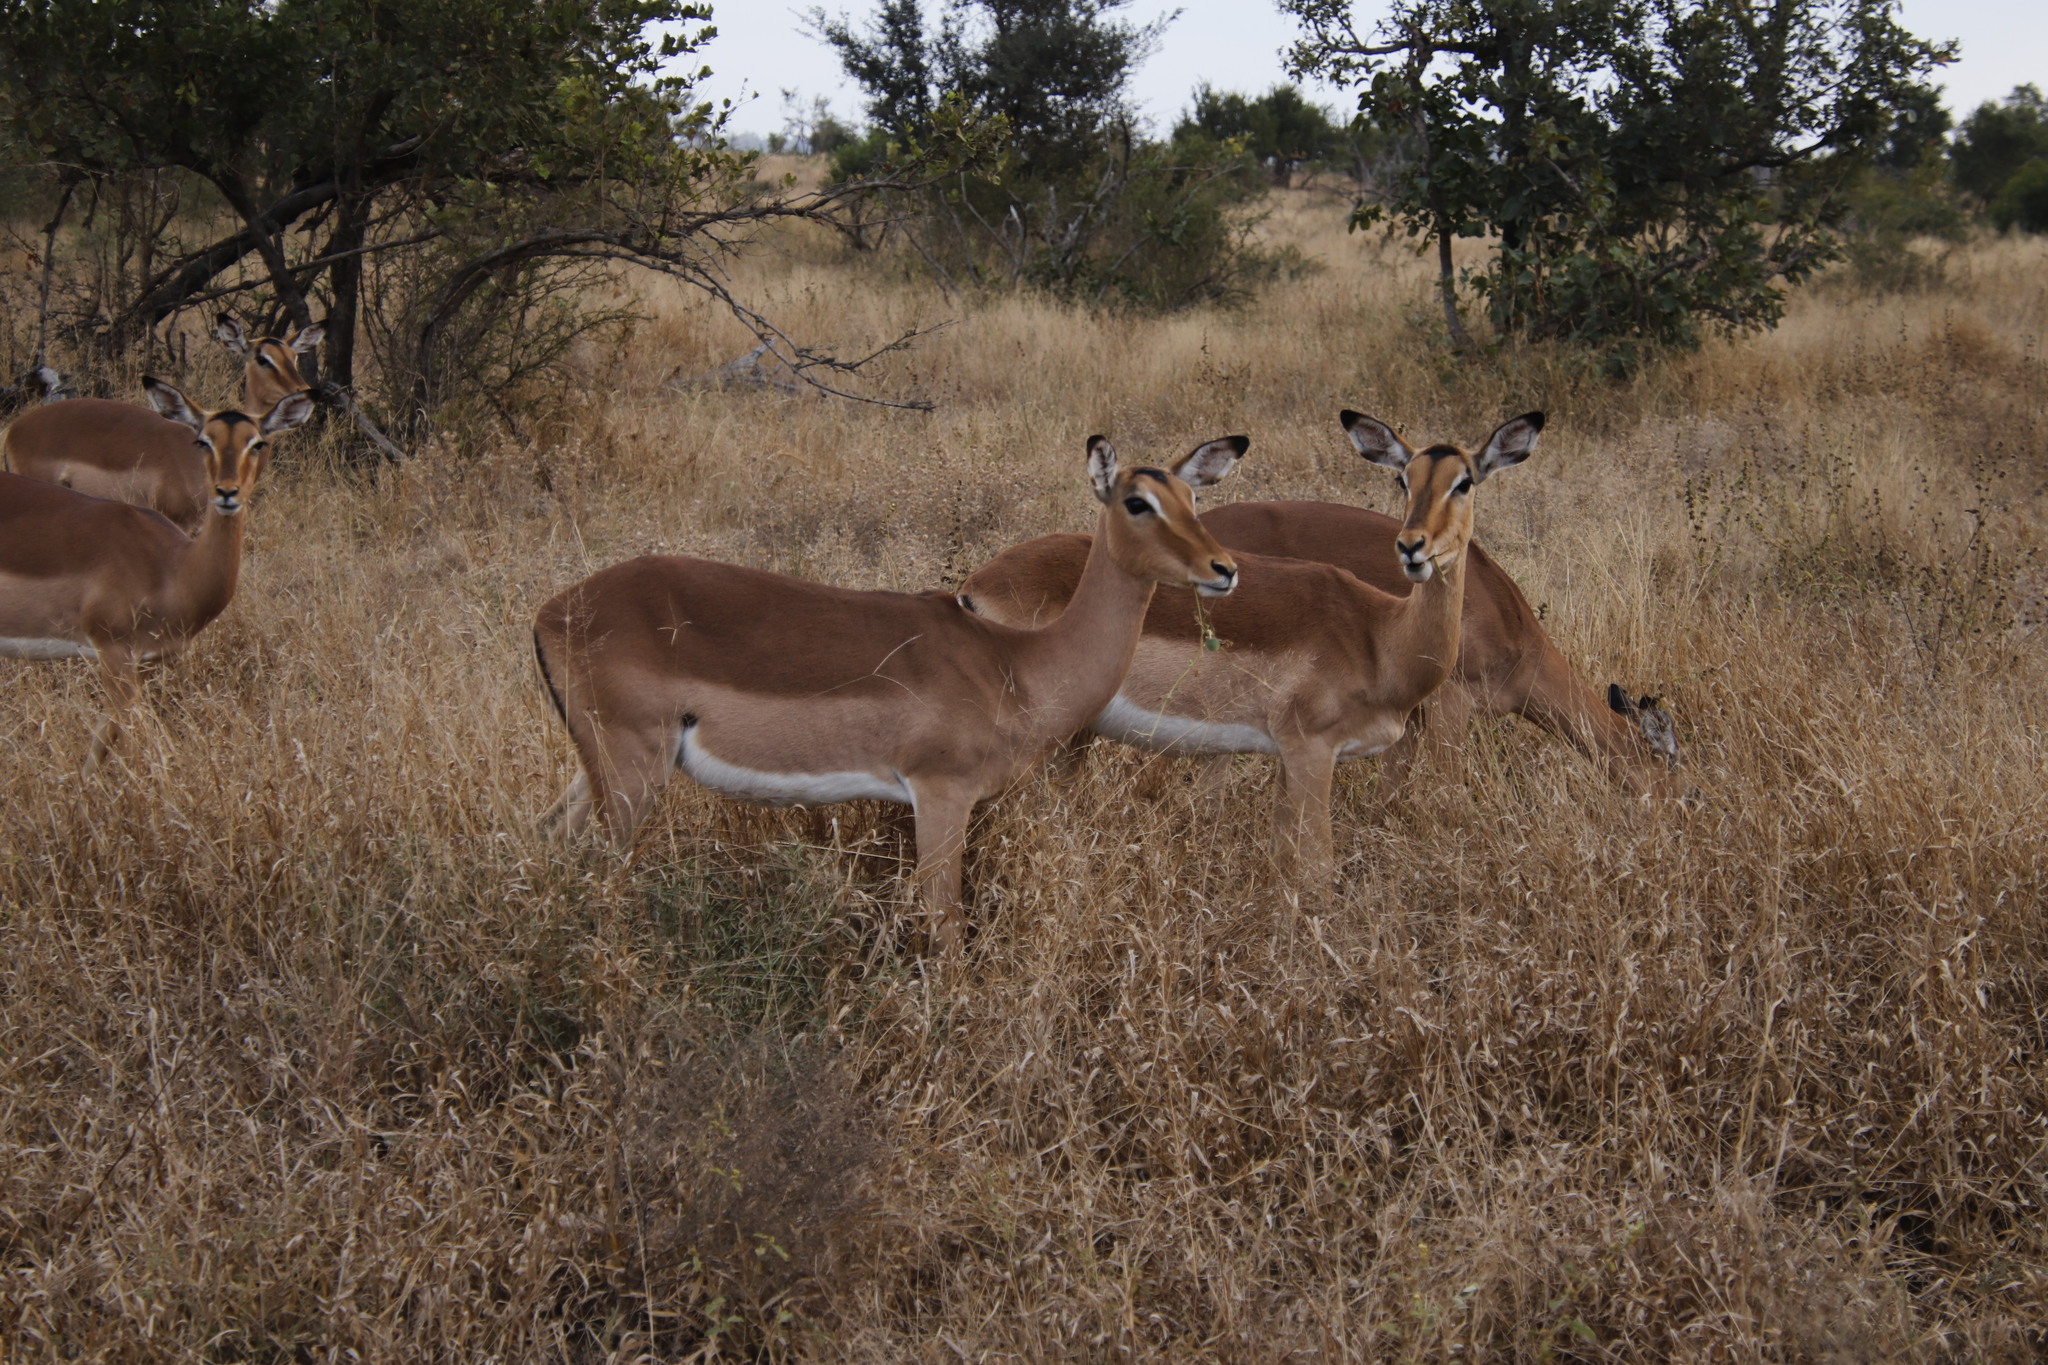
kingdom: Animalia
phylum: Chordata
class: Mammalia
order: Artiodactyla
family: Bovidae
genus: Aepyceros
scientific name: Aepyceros melampus
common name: Impala
